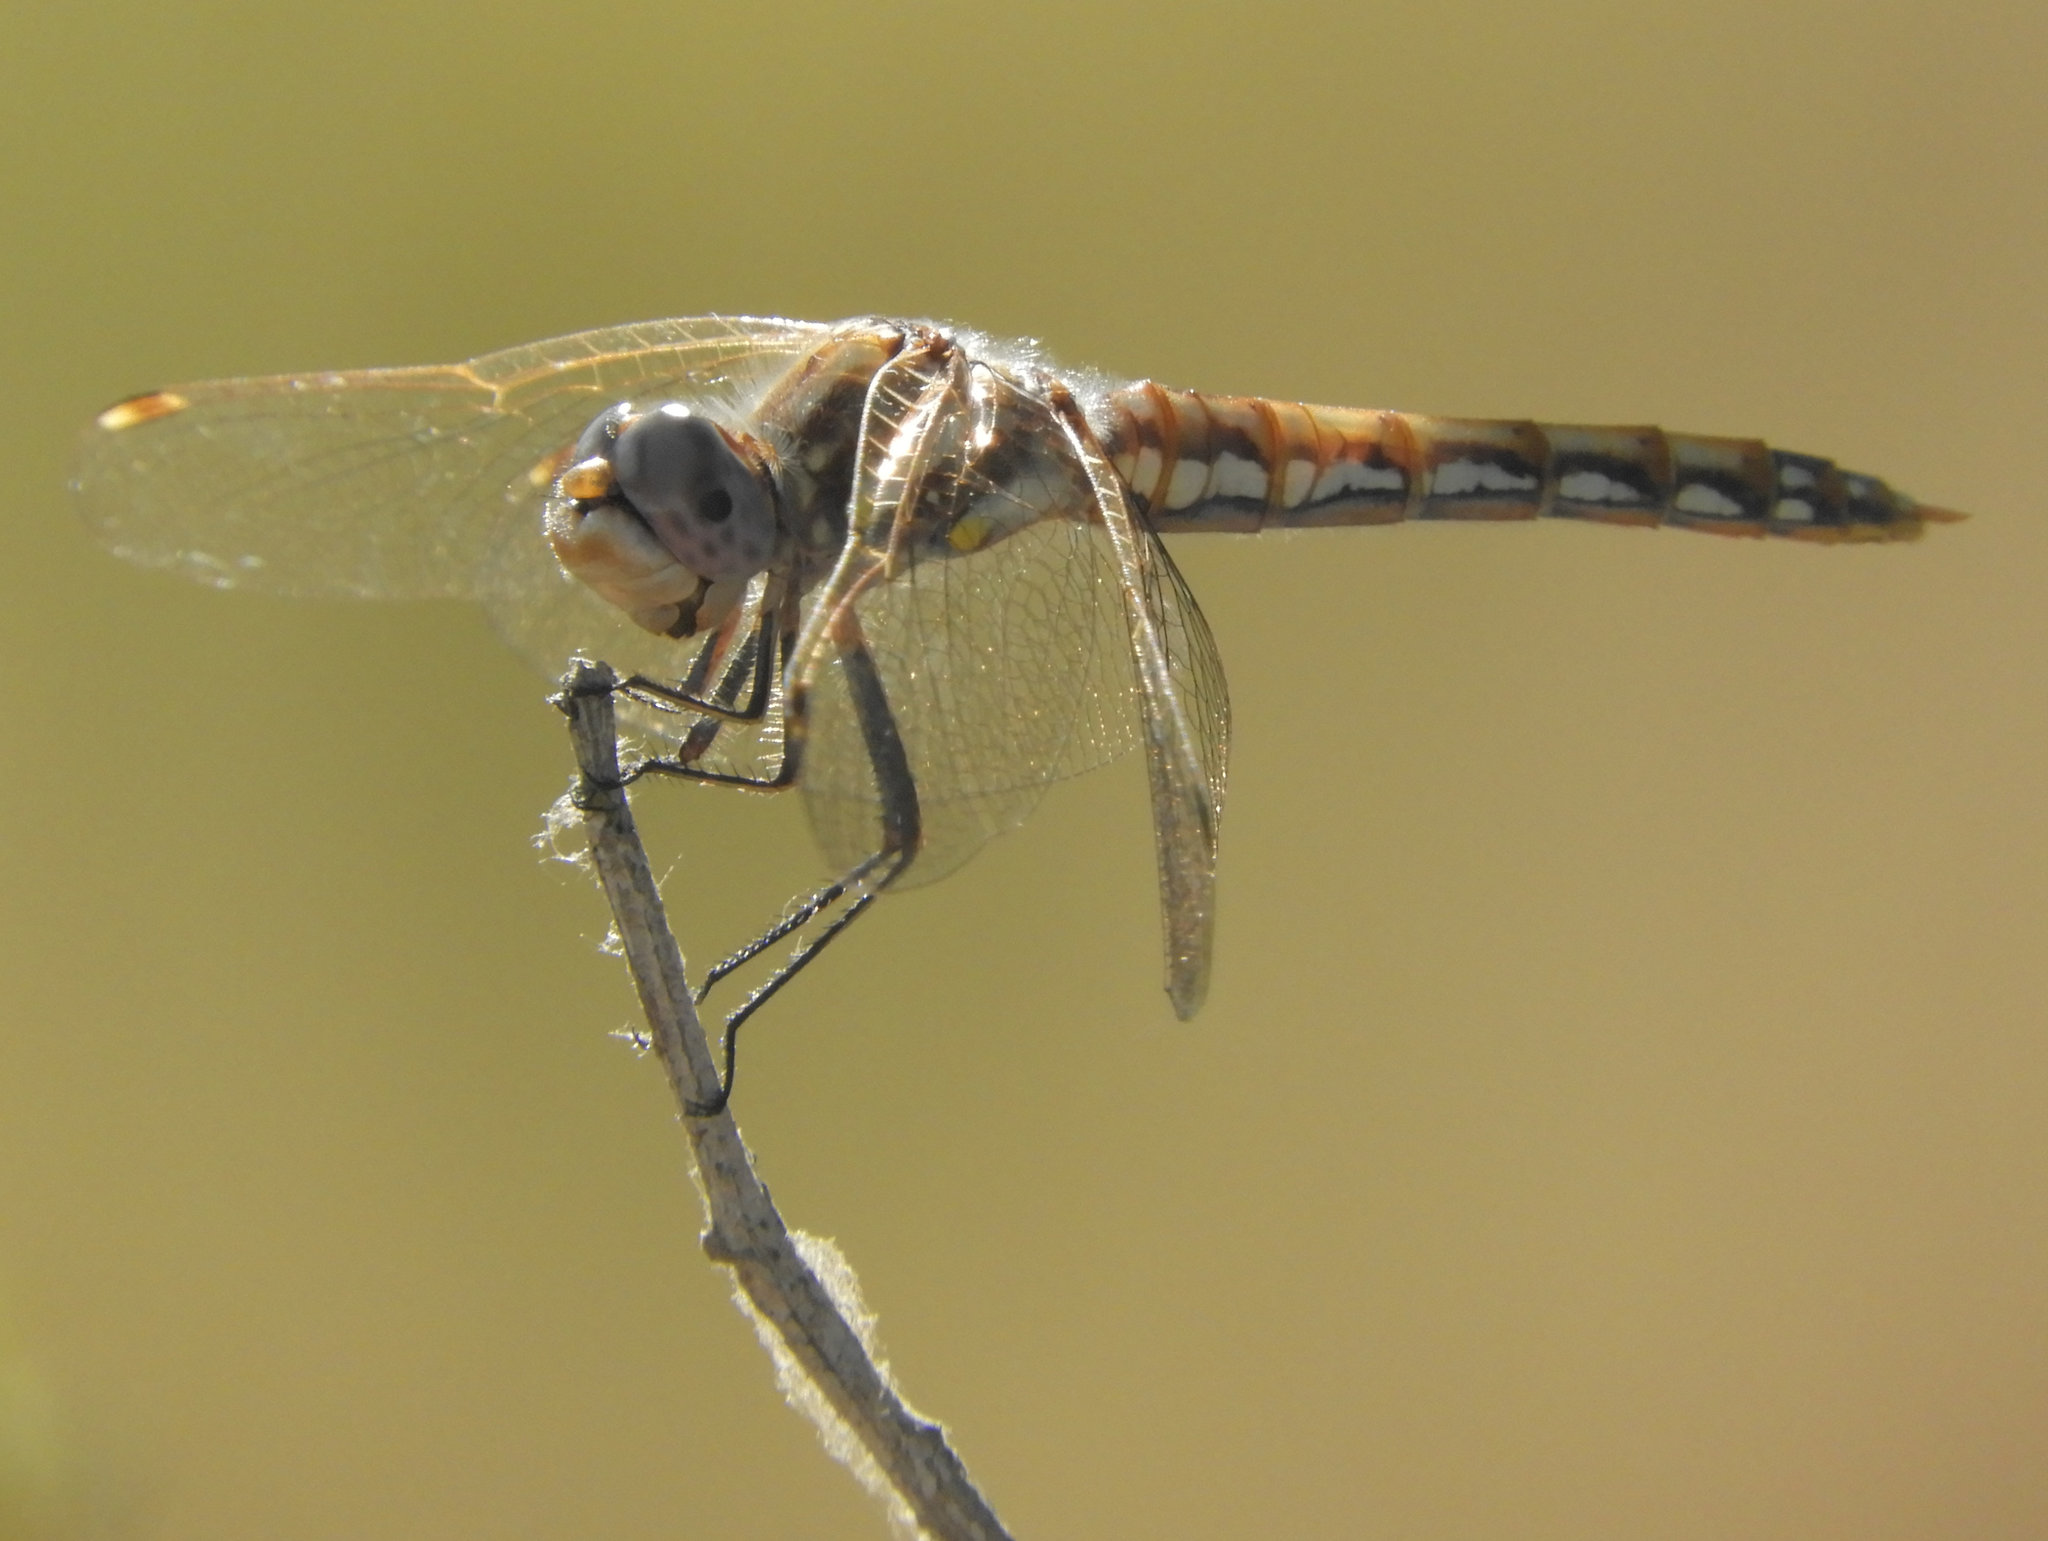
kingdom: Animalia
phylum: Arthropoda
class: Insecta
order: Odonata
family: Libellulidae
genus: Sympetrum
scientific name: Sympetrum corruptum
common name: Variegated meadowhawk
